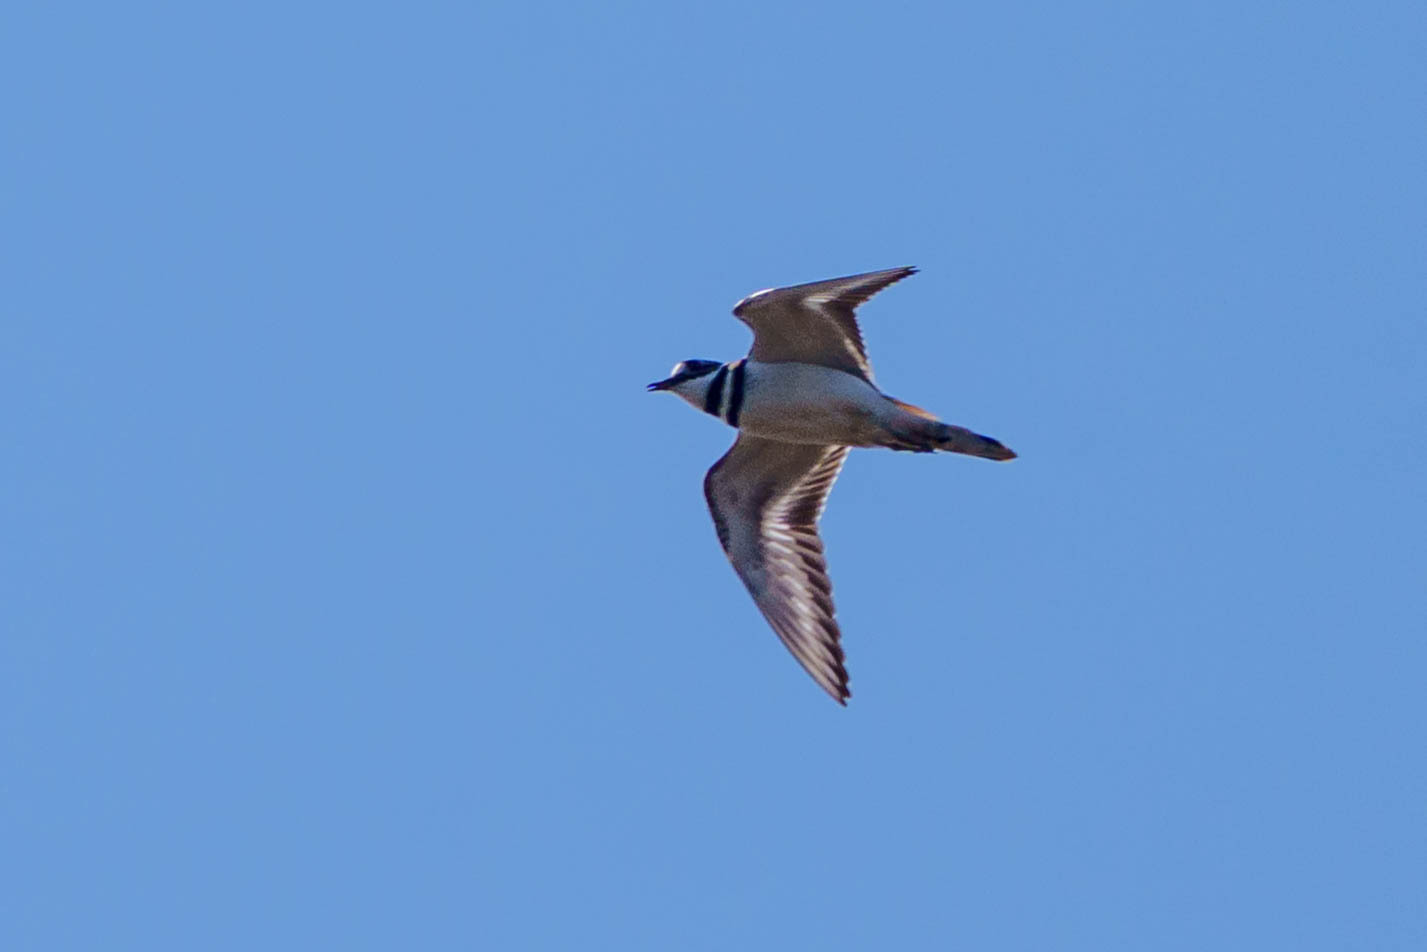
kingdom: Animalia
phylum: Chordata
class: Aves
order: Charadriiformes
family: Charadriidae
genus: Charadrius
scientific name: Charadrius vociferus
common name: Killdeer
